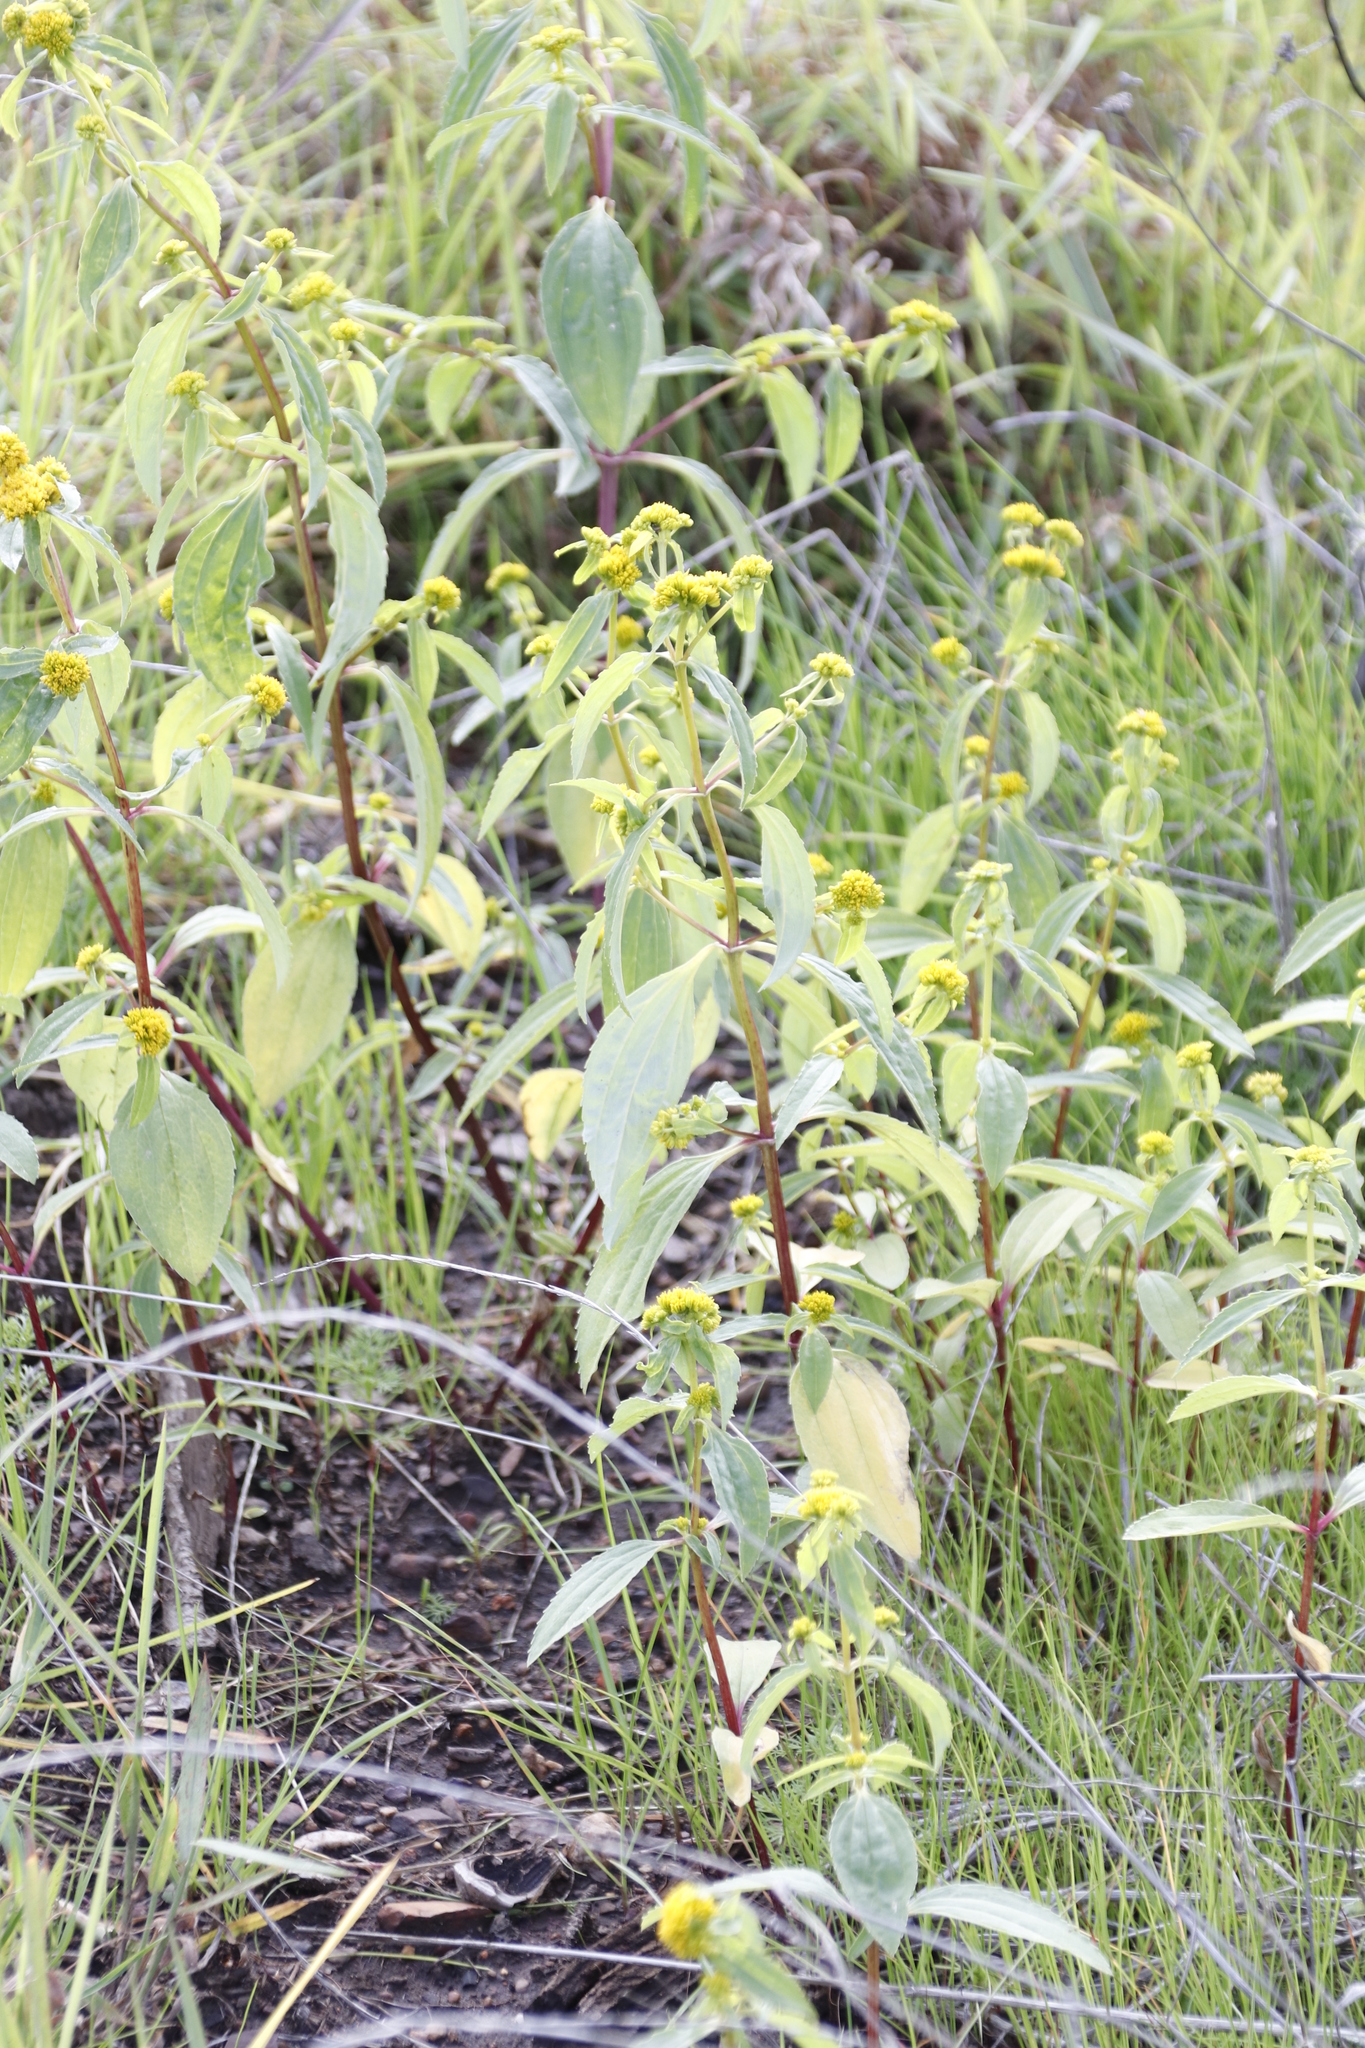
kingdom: Plantae
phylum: Tracheophyta
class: Magnoliopsida
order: Asterales
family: Asteraceae
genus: Flaveria
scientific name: Flaveria bidentis
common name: Coastal plain yellowtops
